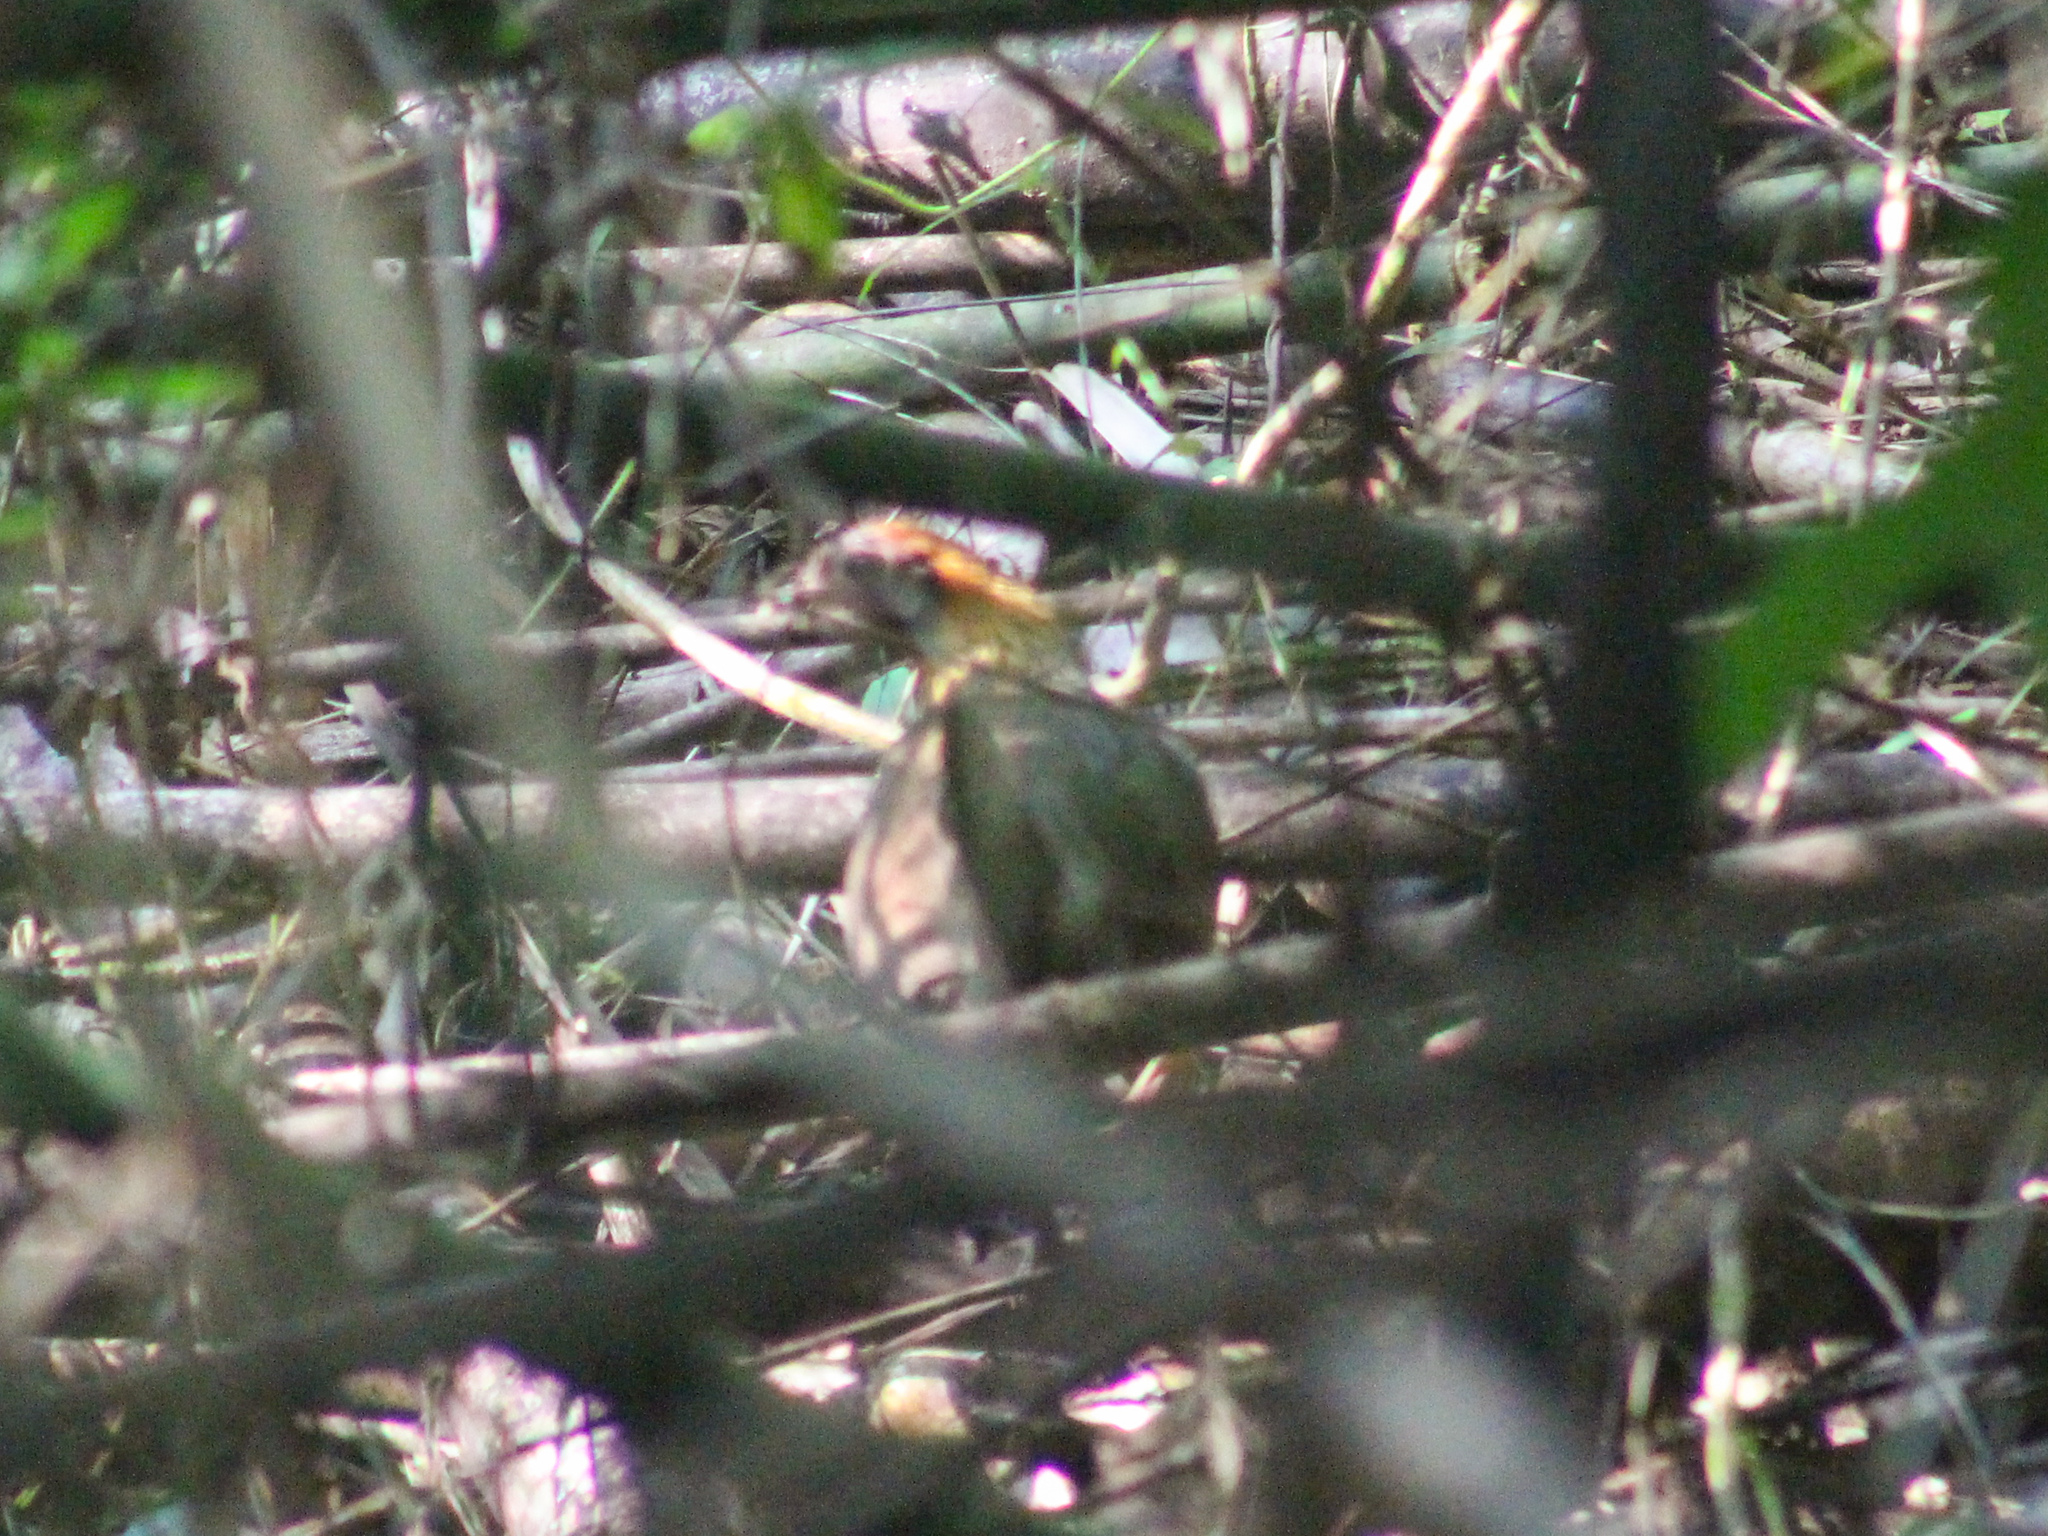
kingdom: Animalia
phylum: Chordata
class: Aves
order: Galliformes
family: Phasianidae
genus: Gallus
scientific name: Gallus gallus
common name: Red junglefowl
